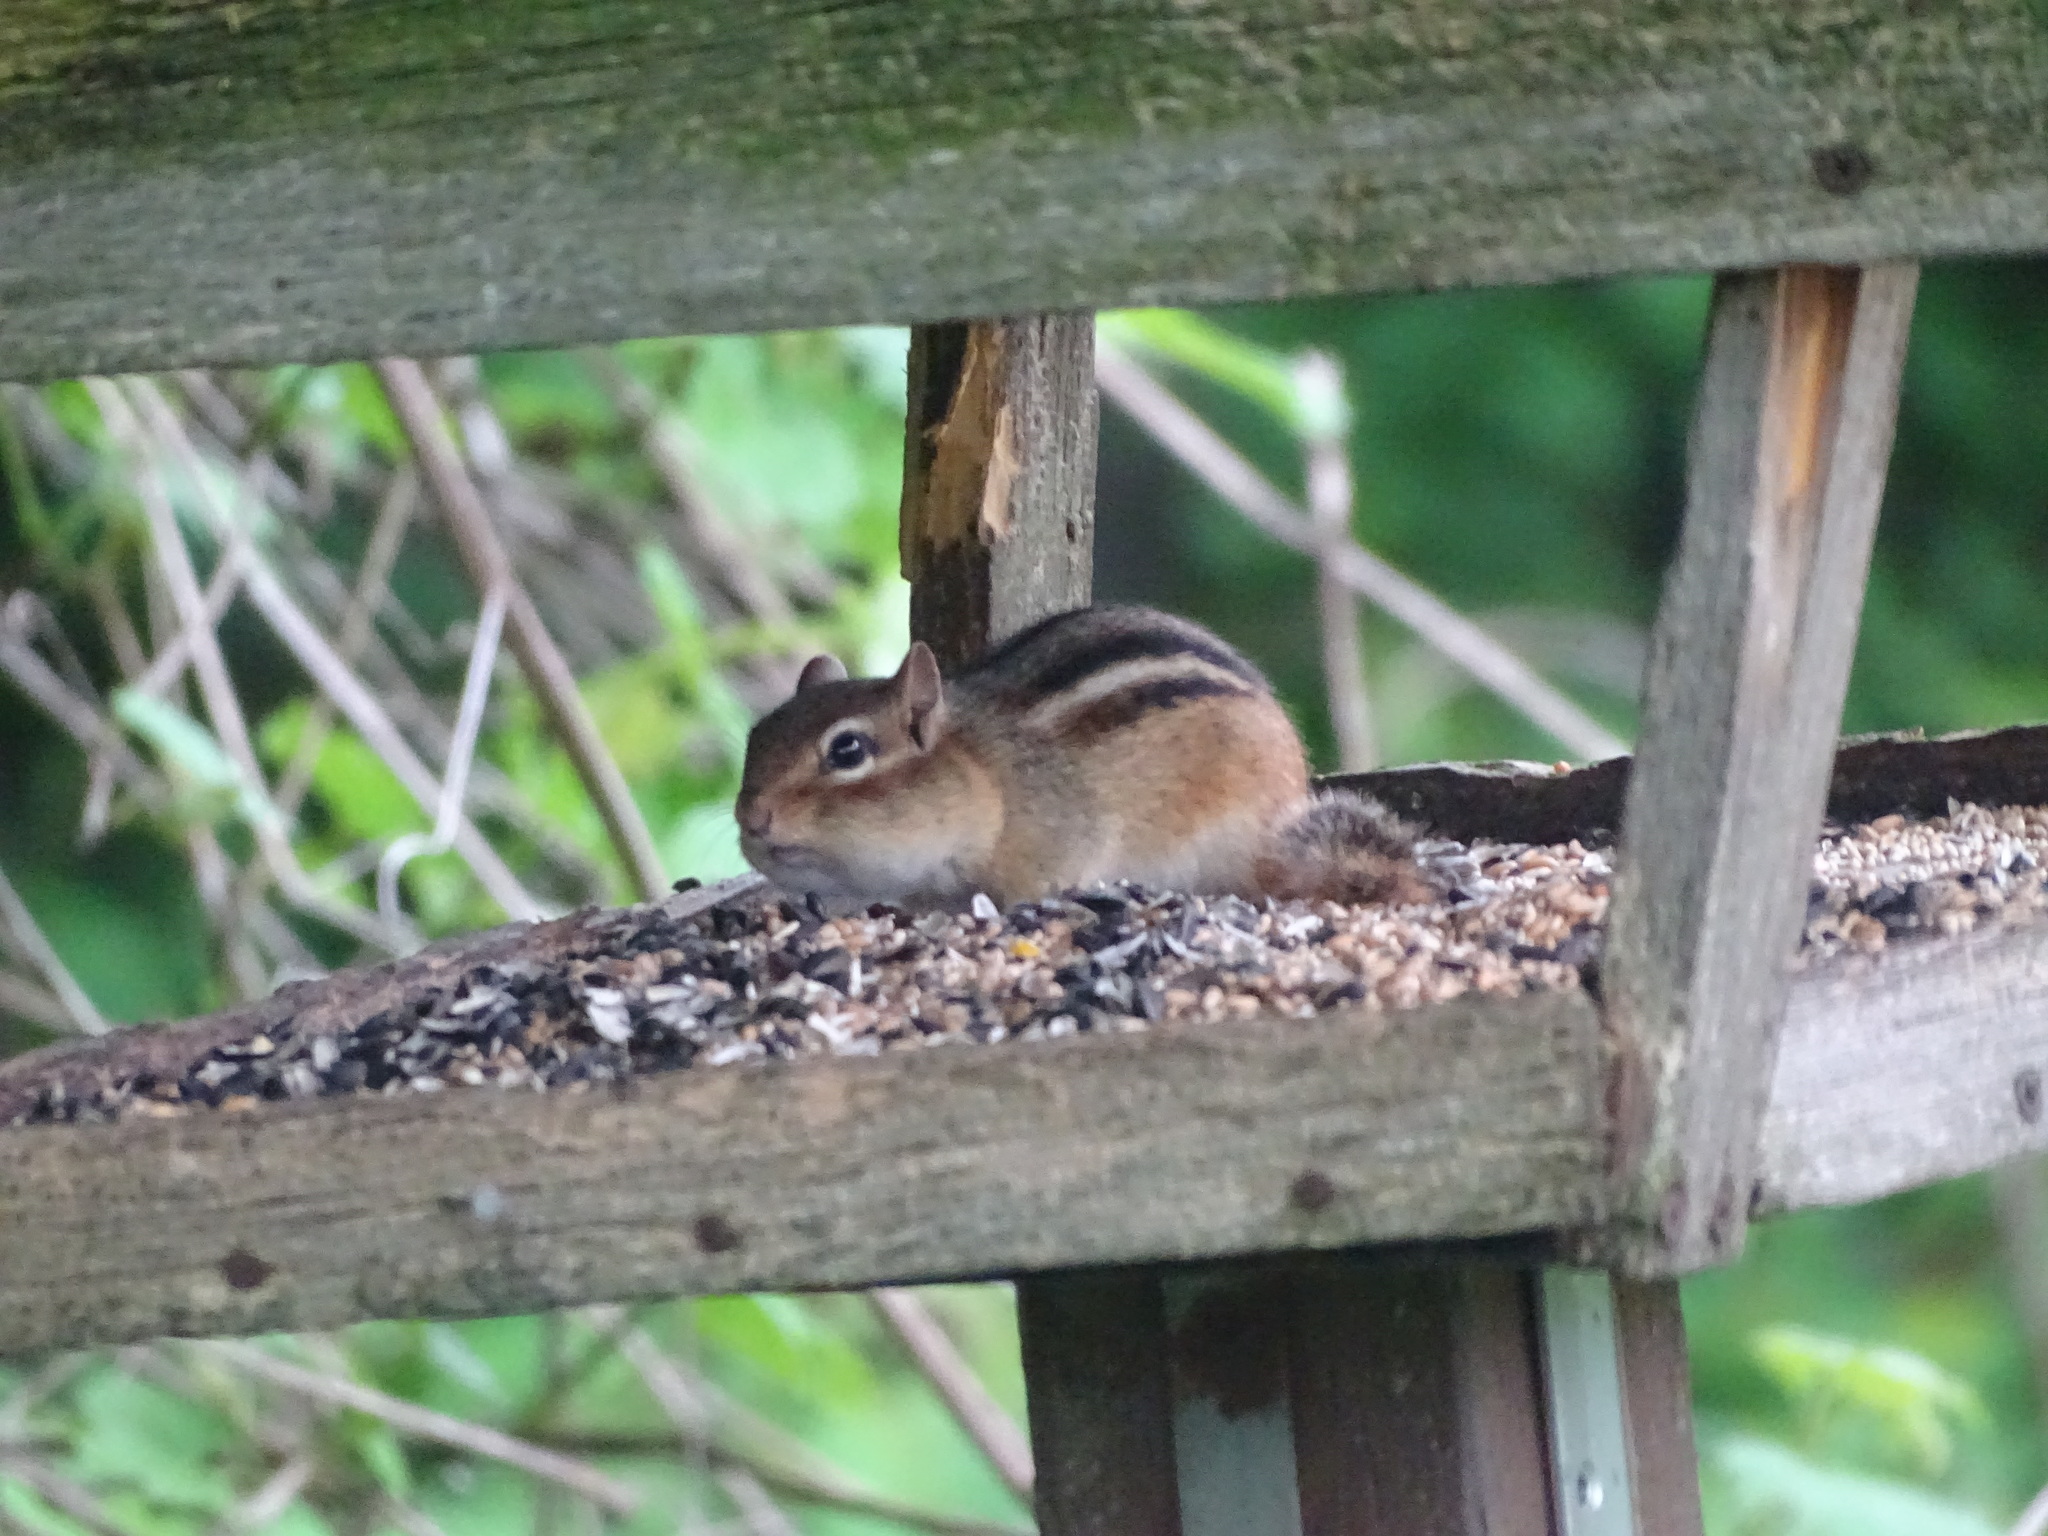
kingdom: Animalia
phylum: Chordata
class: Mammalia
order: Rodentia
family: Sciuridae
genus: Tamias
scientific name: Tamias striatus
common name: Eastern chipmunk
